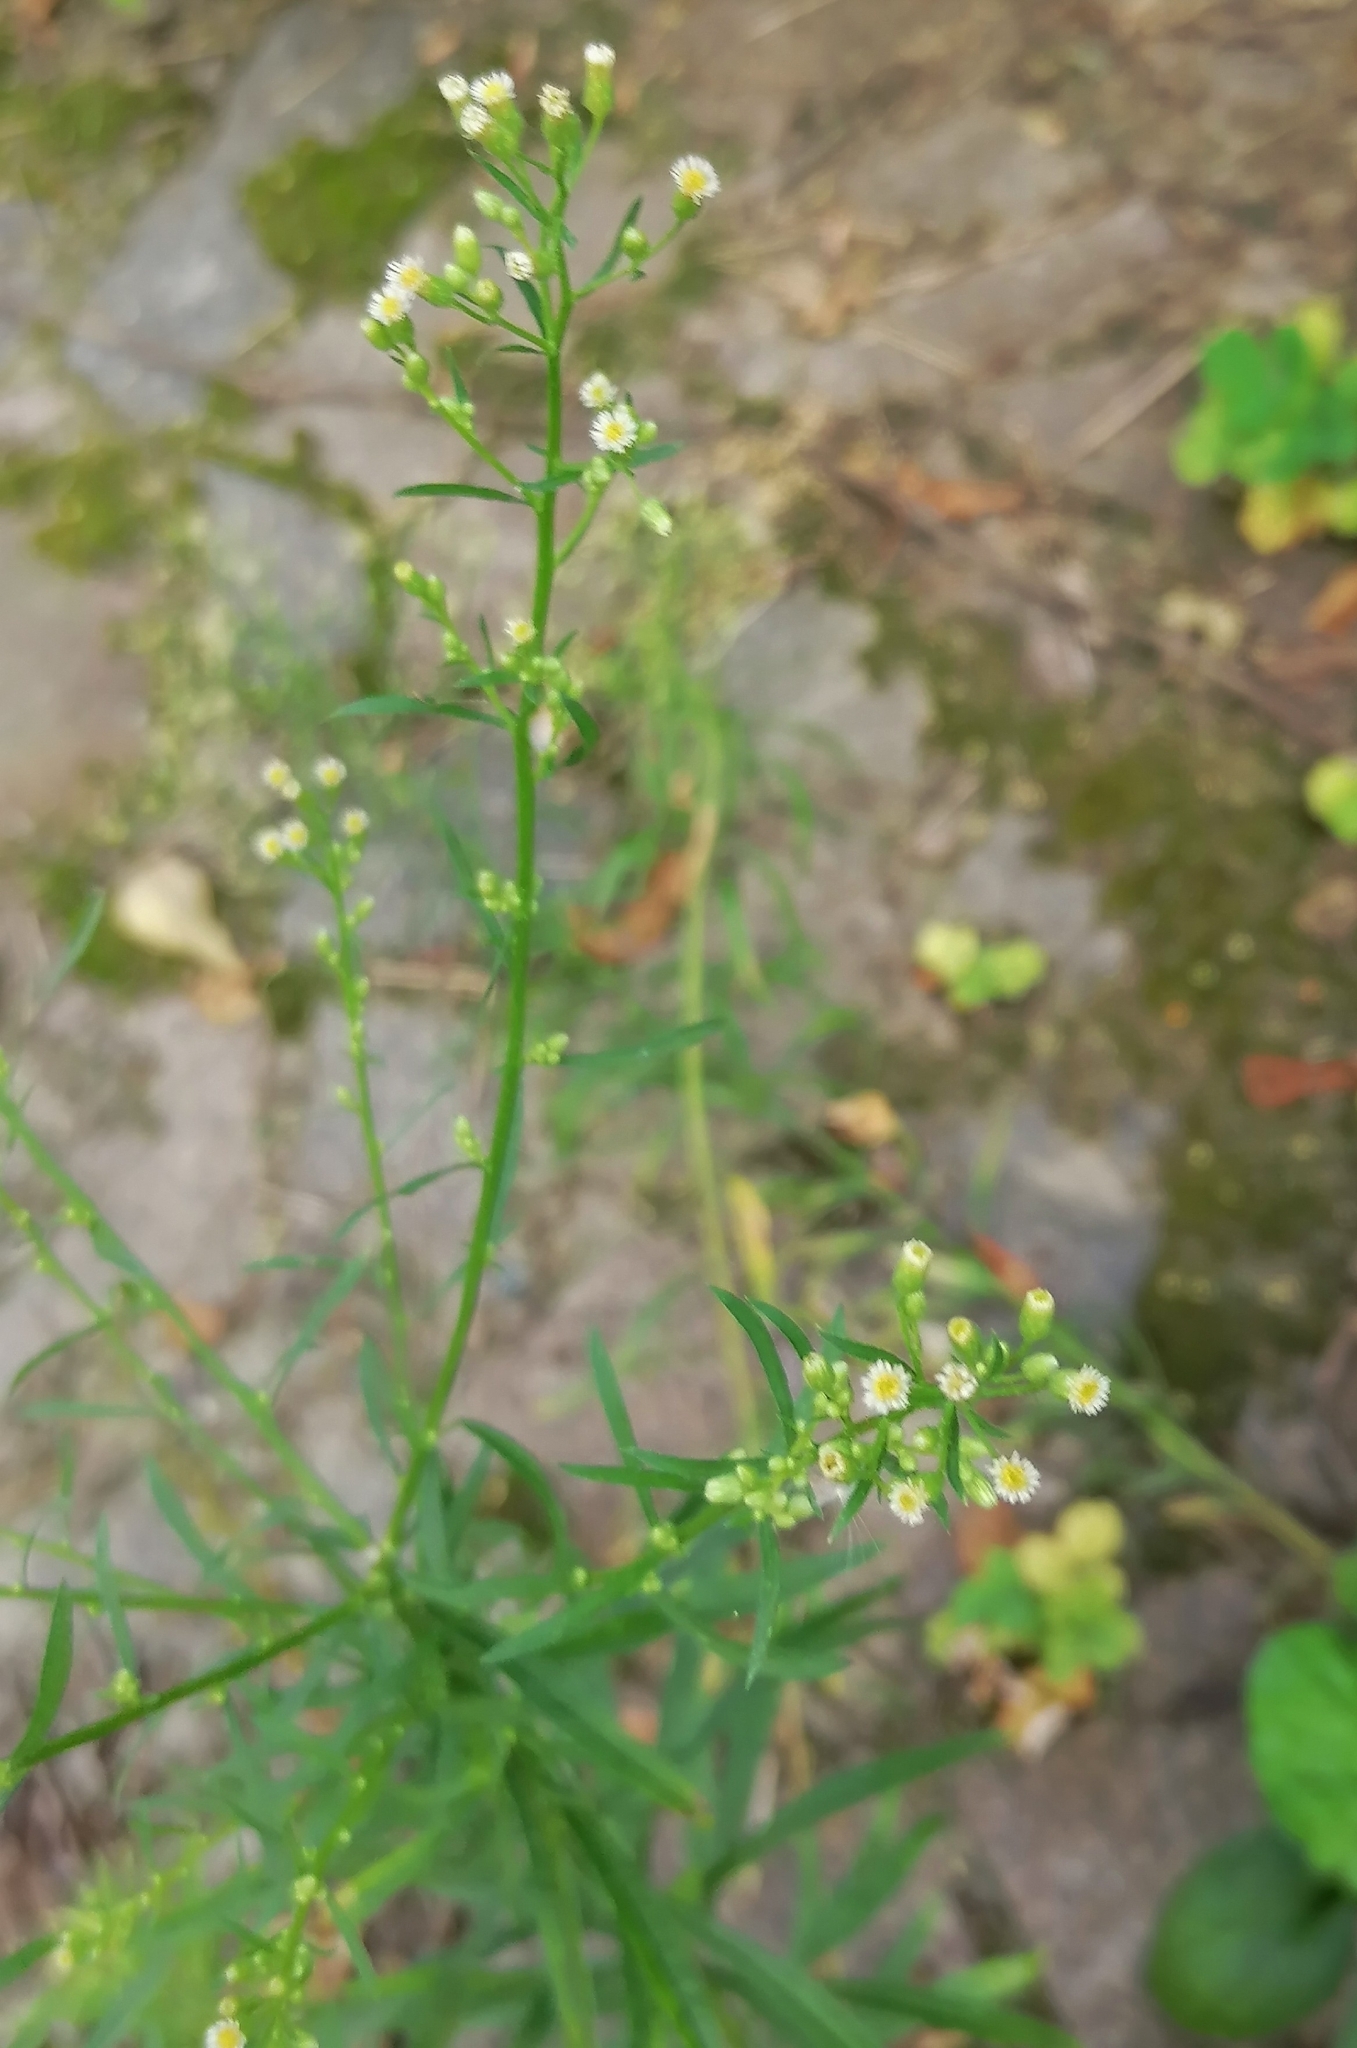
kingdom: Plantae
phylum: Tracheophyta
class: Magnoliopsida
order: Asterales
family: Asteraceae
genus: Erigeron
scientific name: Erigeron canadensis
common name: Canadian fleabane
